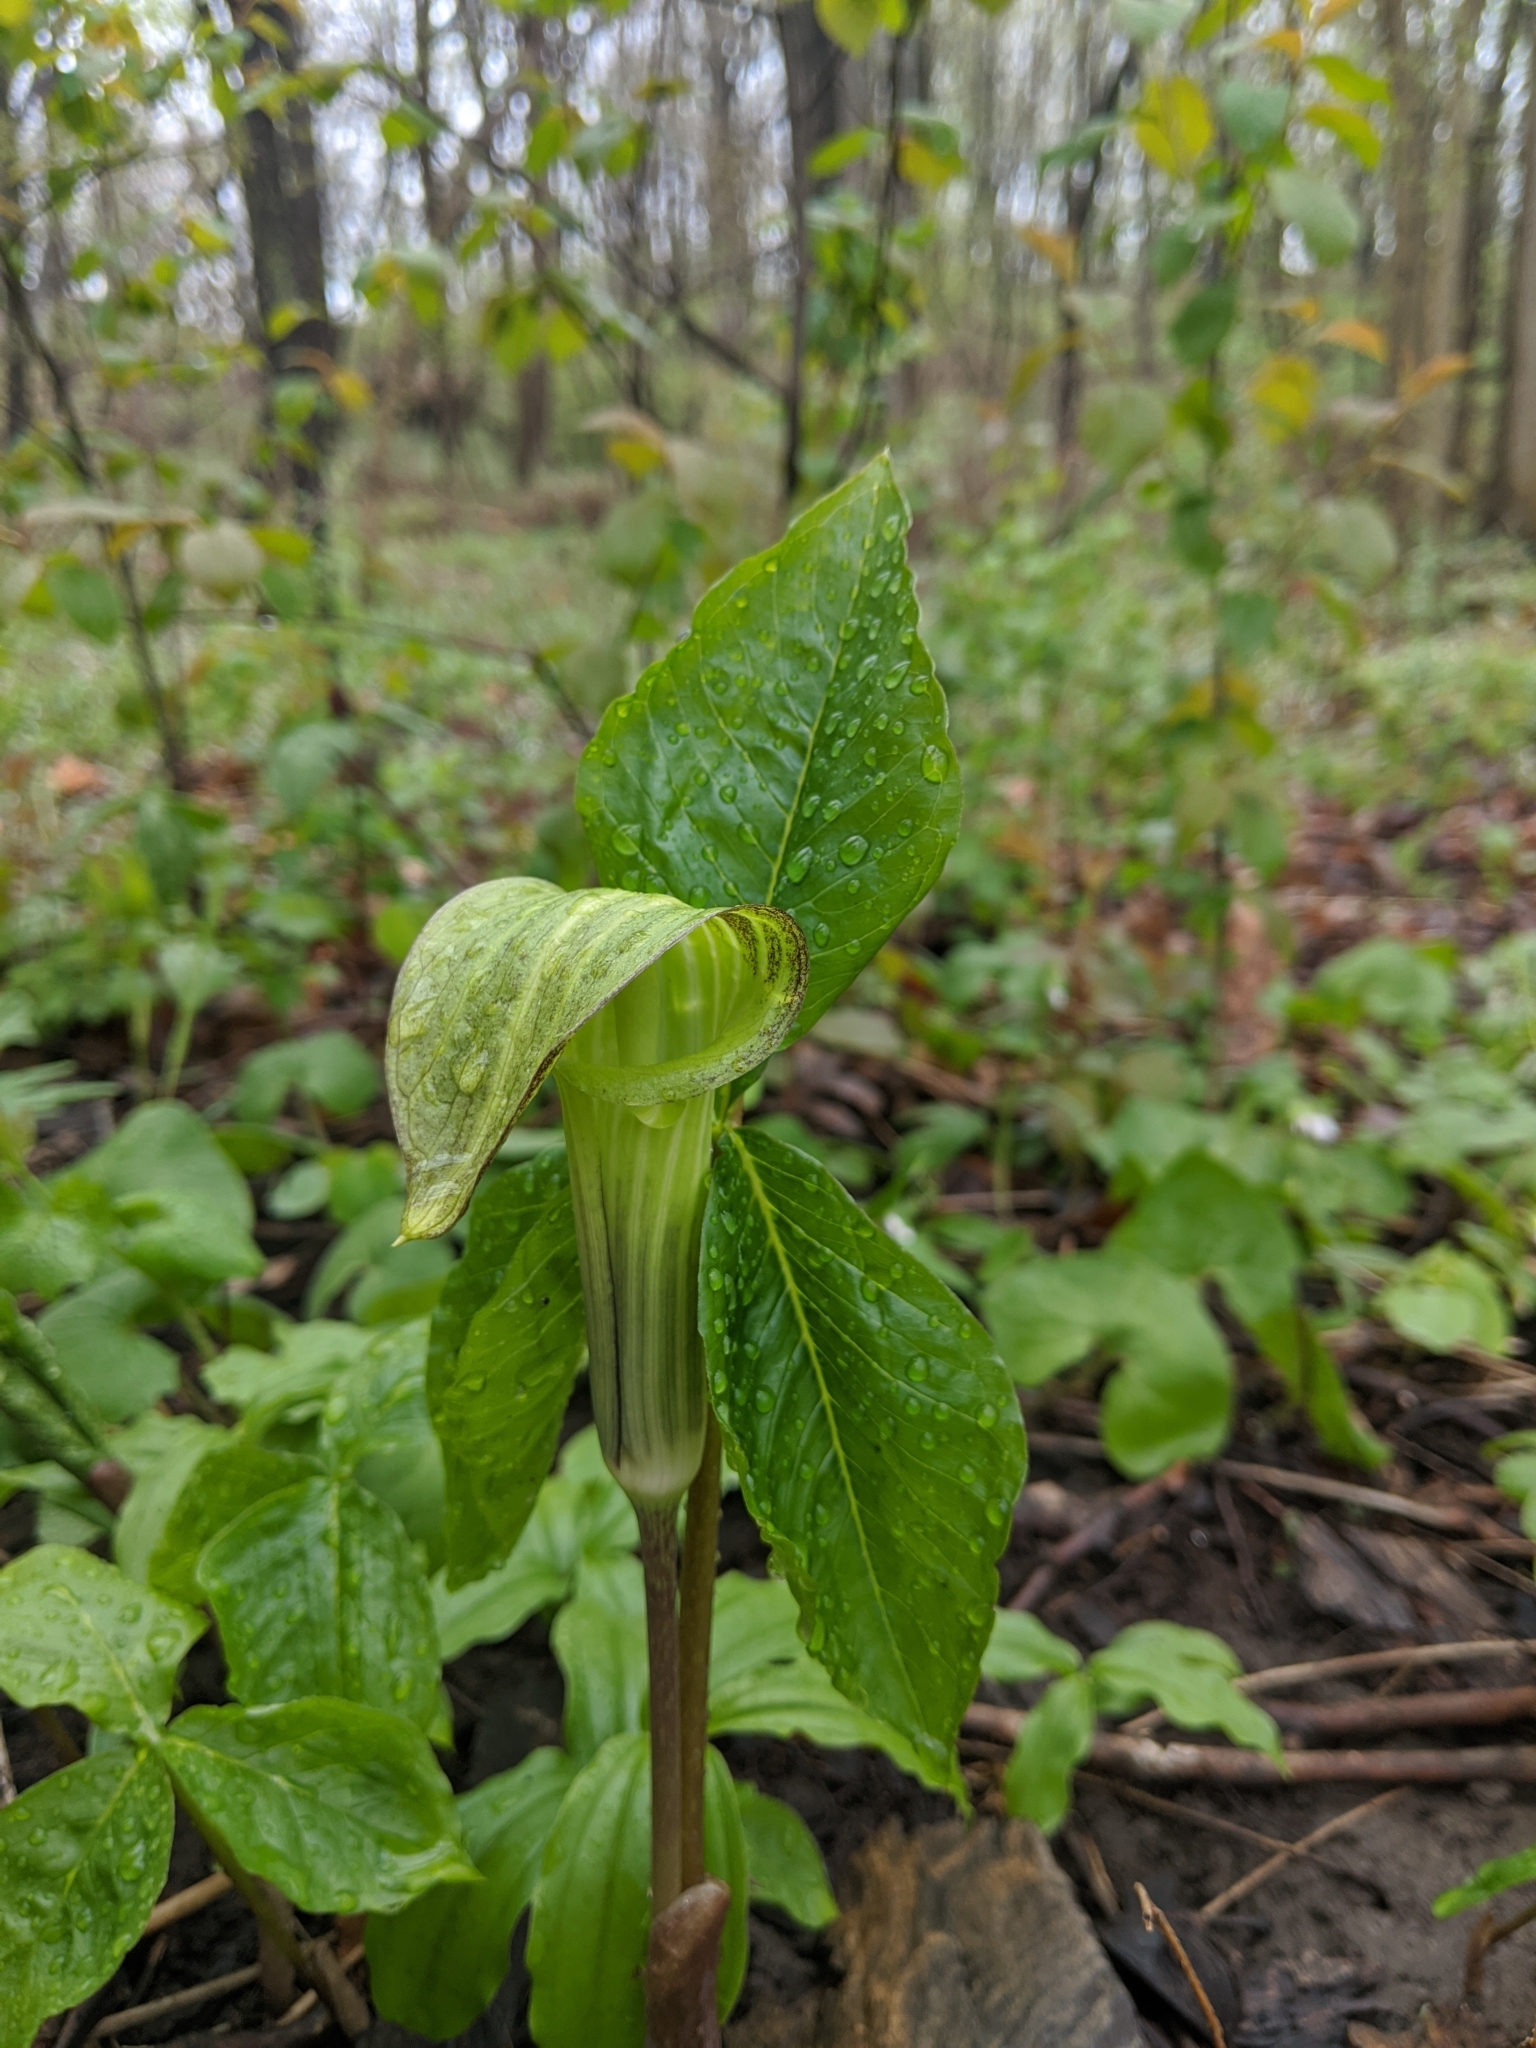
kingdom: Plantae
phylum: Tracheophyta
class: Liliopsida
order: Alismatales
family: Araceae
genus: Arisaema
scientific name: Arisaema triphyllum
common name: Jack-in-the-pulpit
